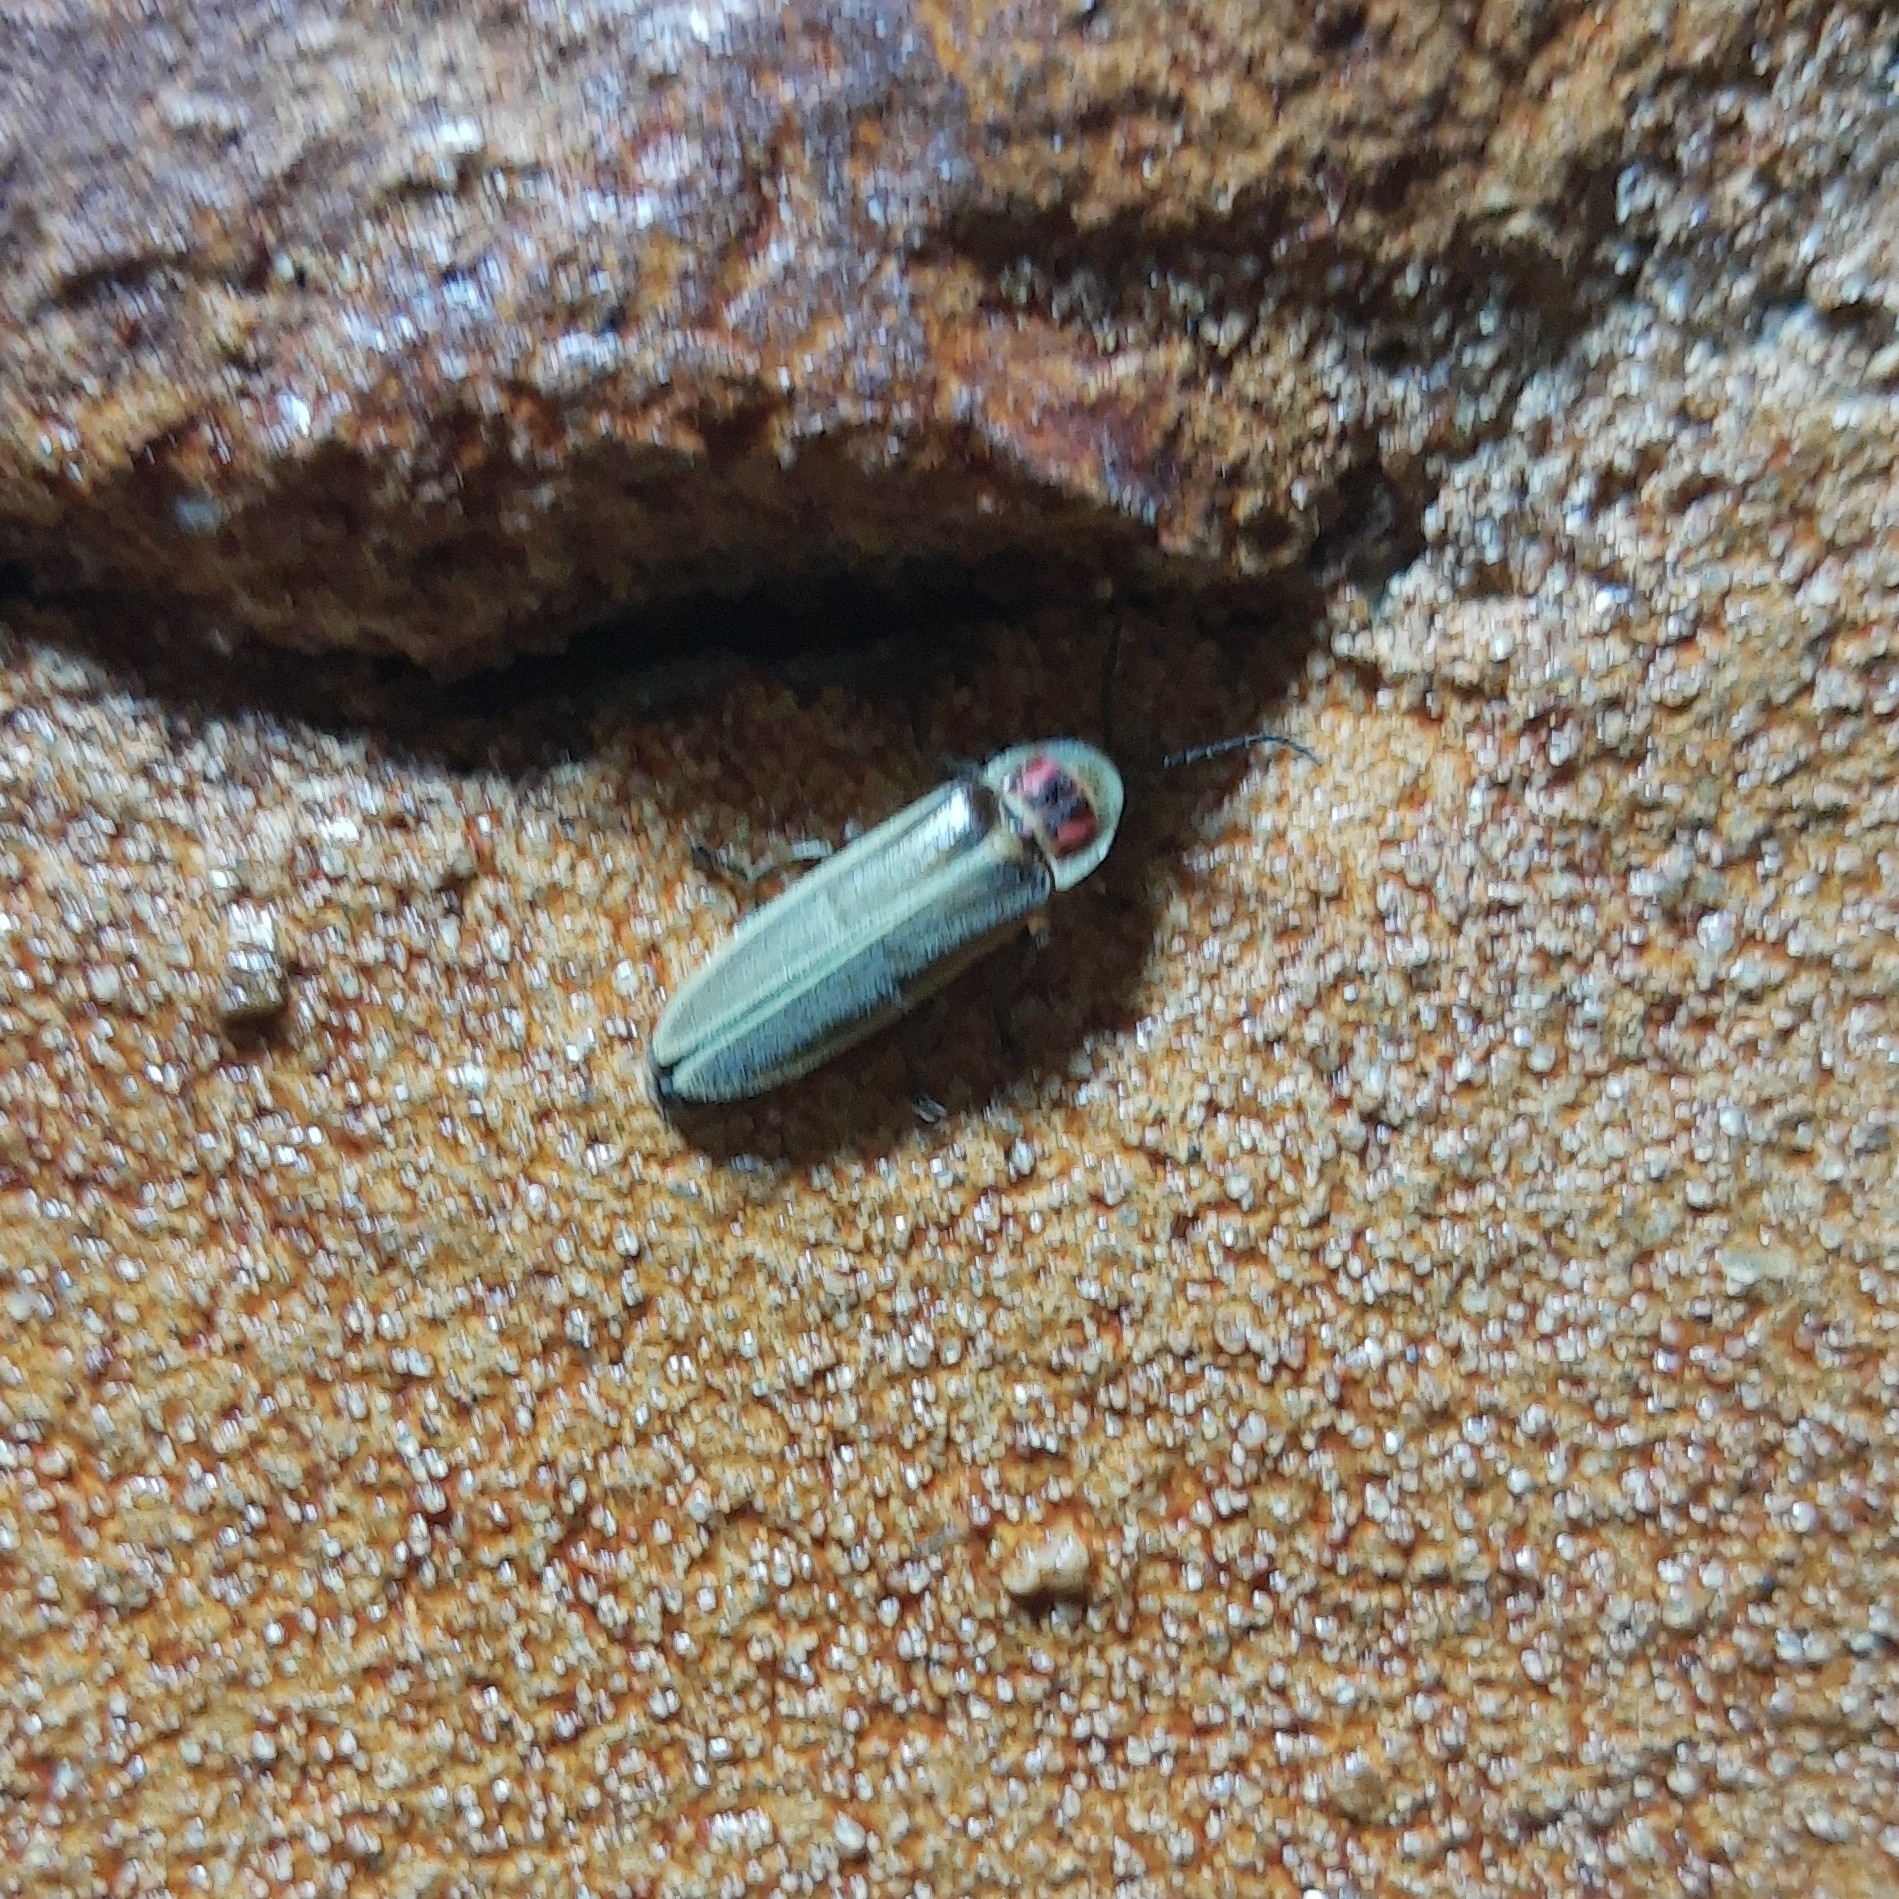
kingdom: Animalia
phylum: Arthropoda
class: Insecta
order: Coleoptera
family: Lampyridae
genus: Photinus
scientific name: Photinus signaticollis
